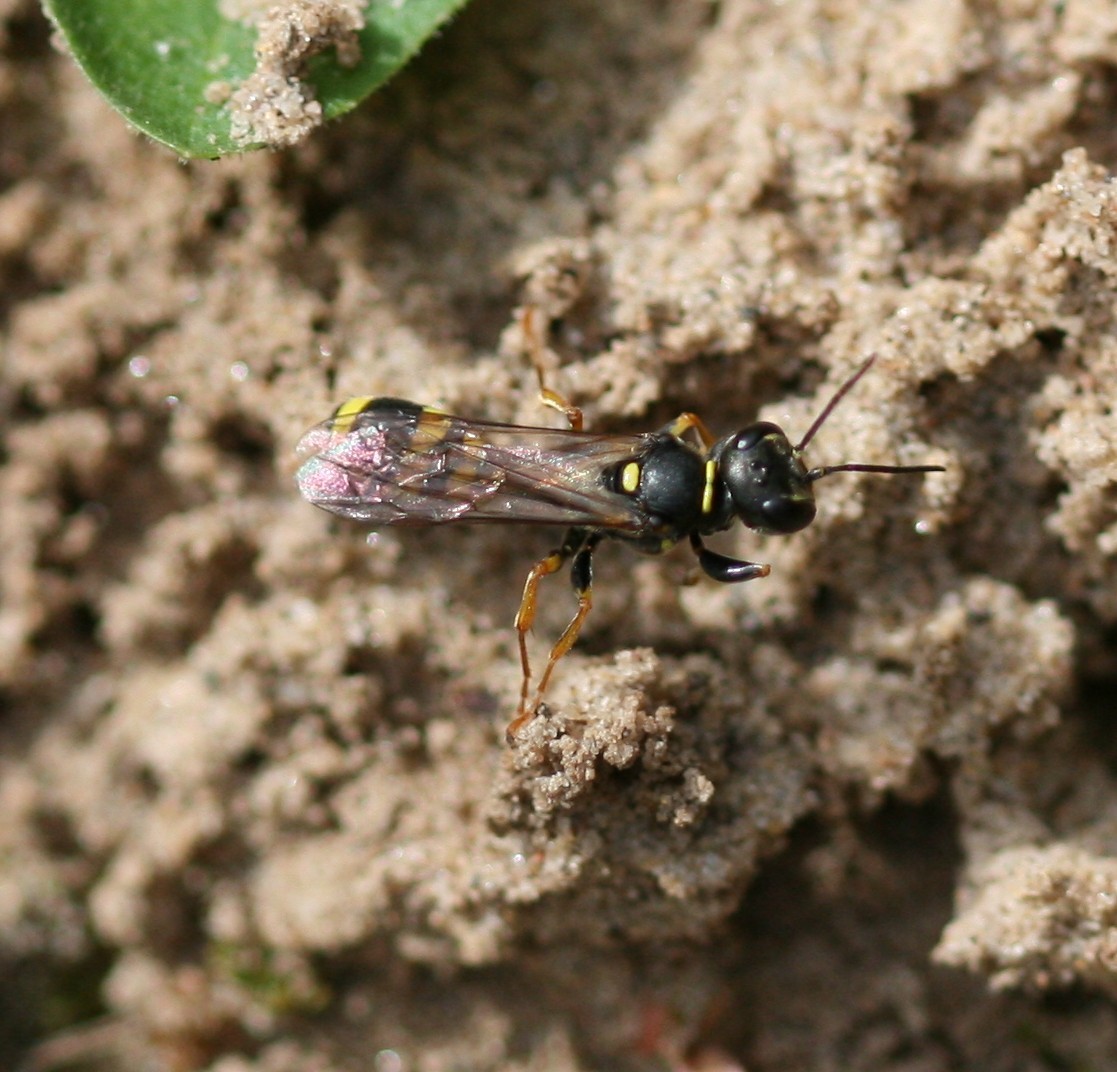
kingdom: Animalia
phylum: Arthropoda
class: Insecta
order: Hymenoptera
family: Crabronidae
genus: Mellinus
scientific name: Mellinus arvensis
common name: Field digger wasp
